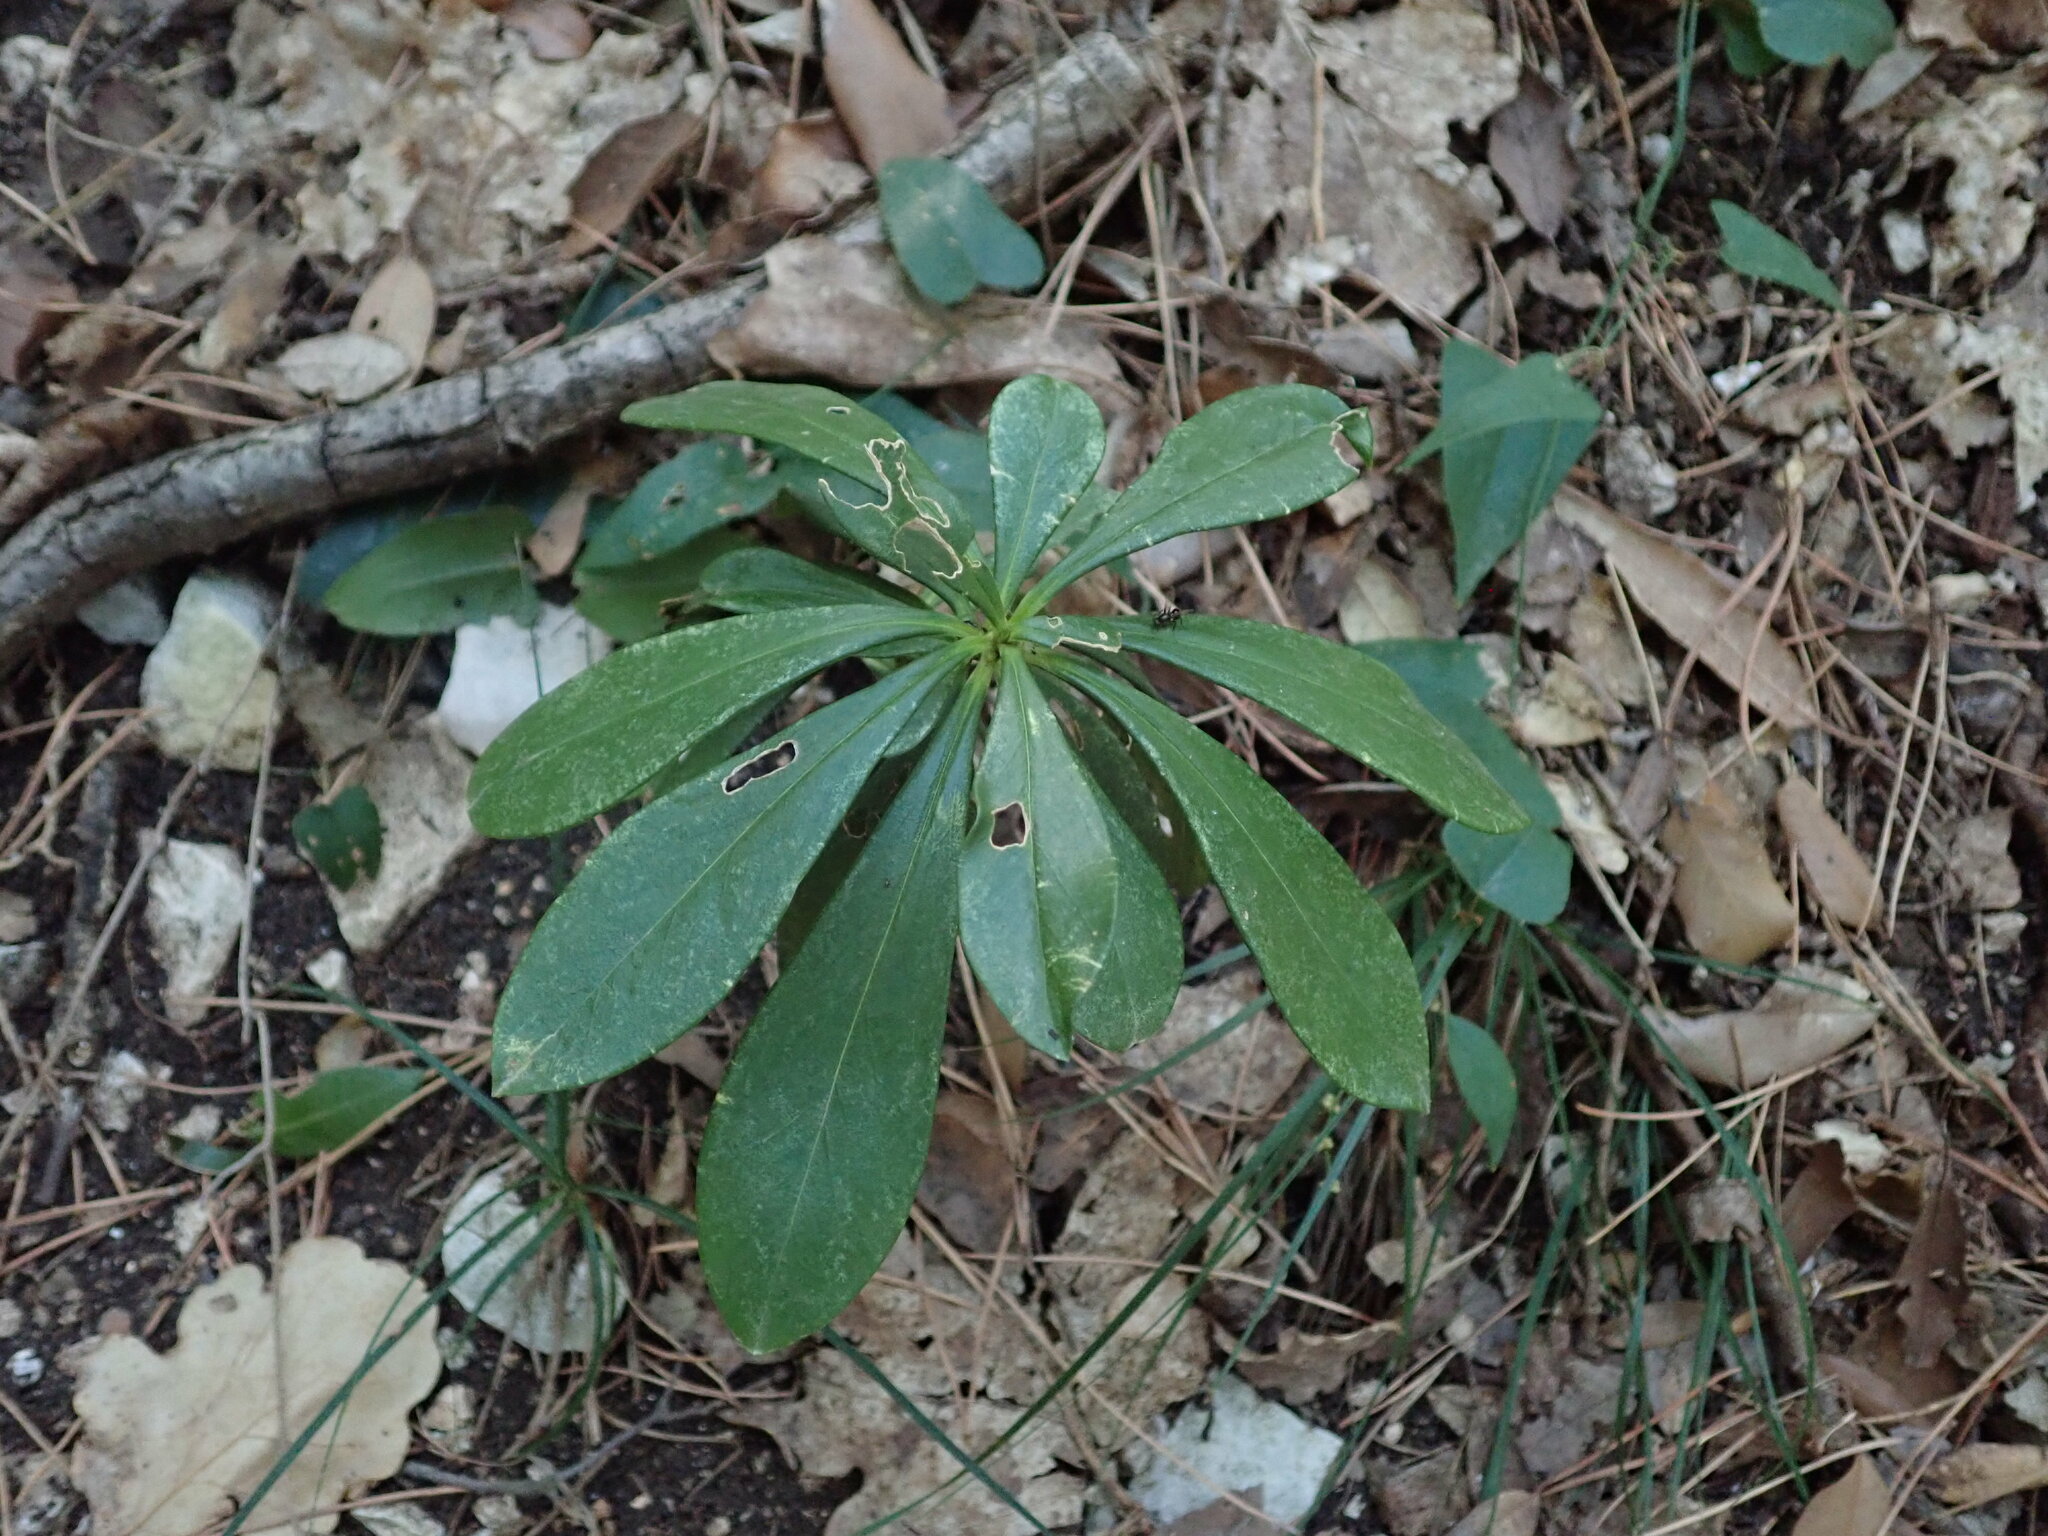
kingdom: Plantae
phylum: Tracheophyta
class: Magnoliopsida
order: Malvales
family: Thymelaeaceae
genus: Daphne
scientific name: Daphne laureola
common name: Spurge-laurel
